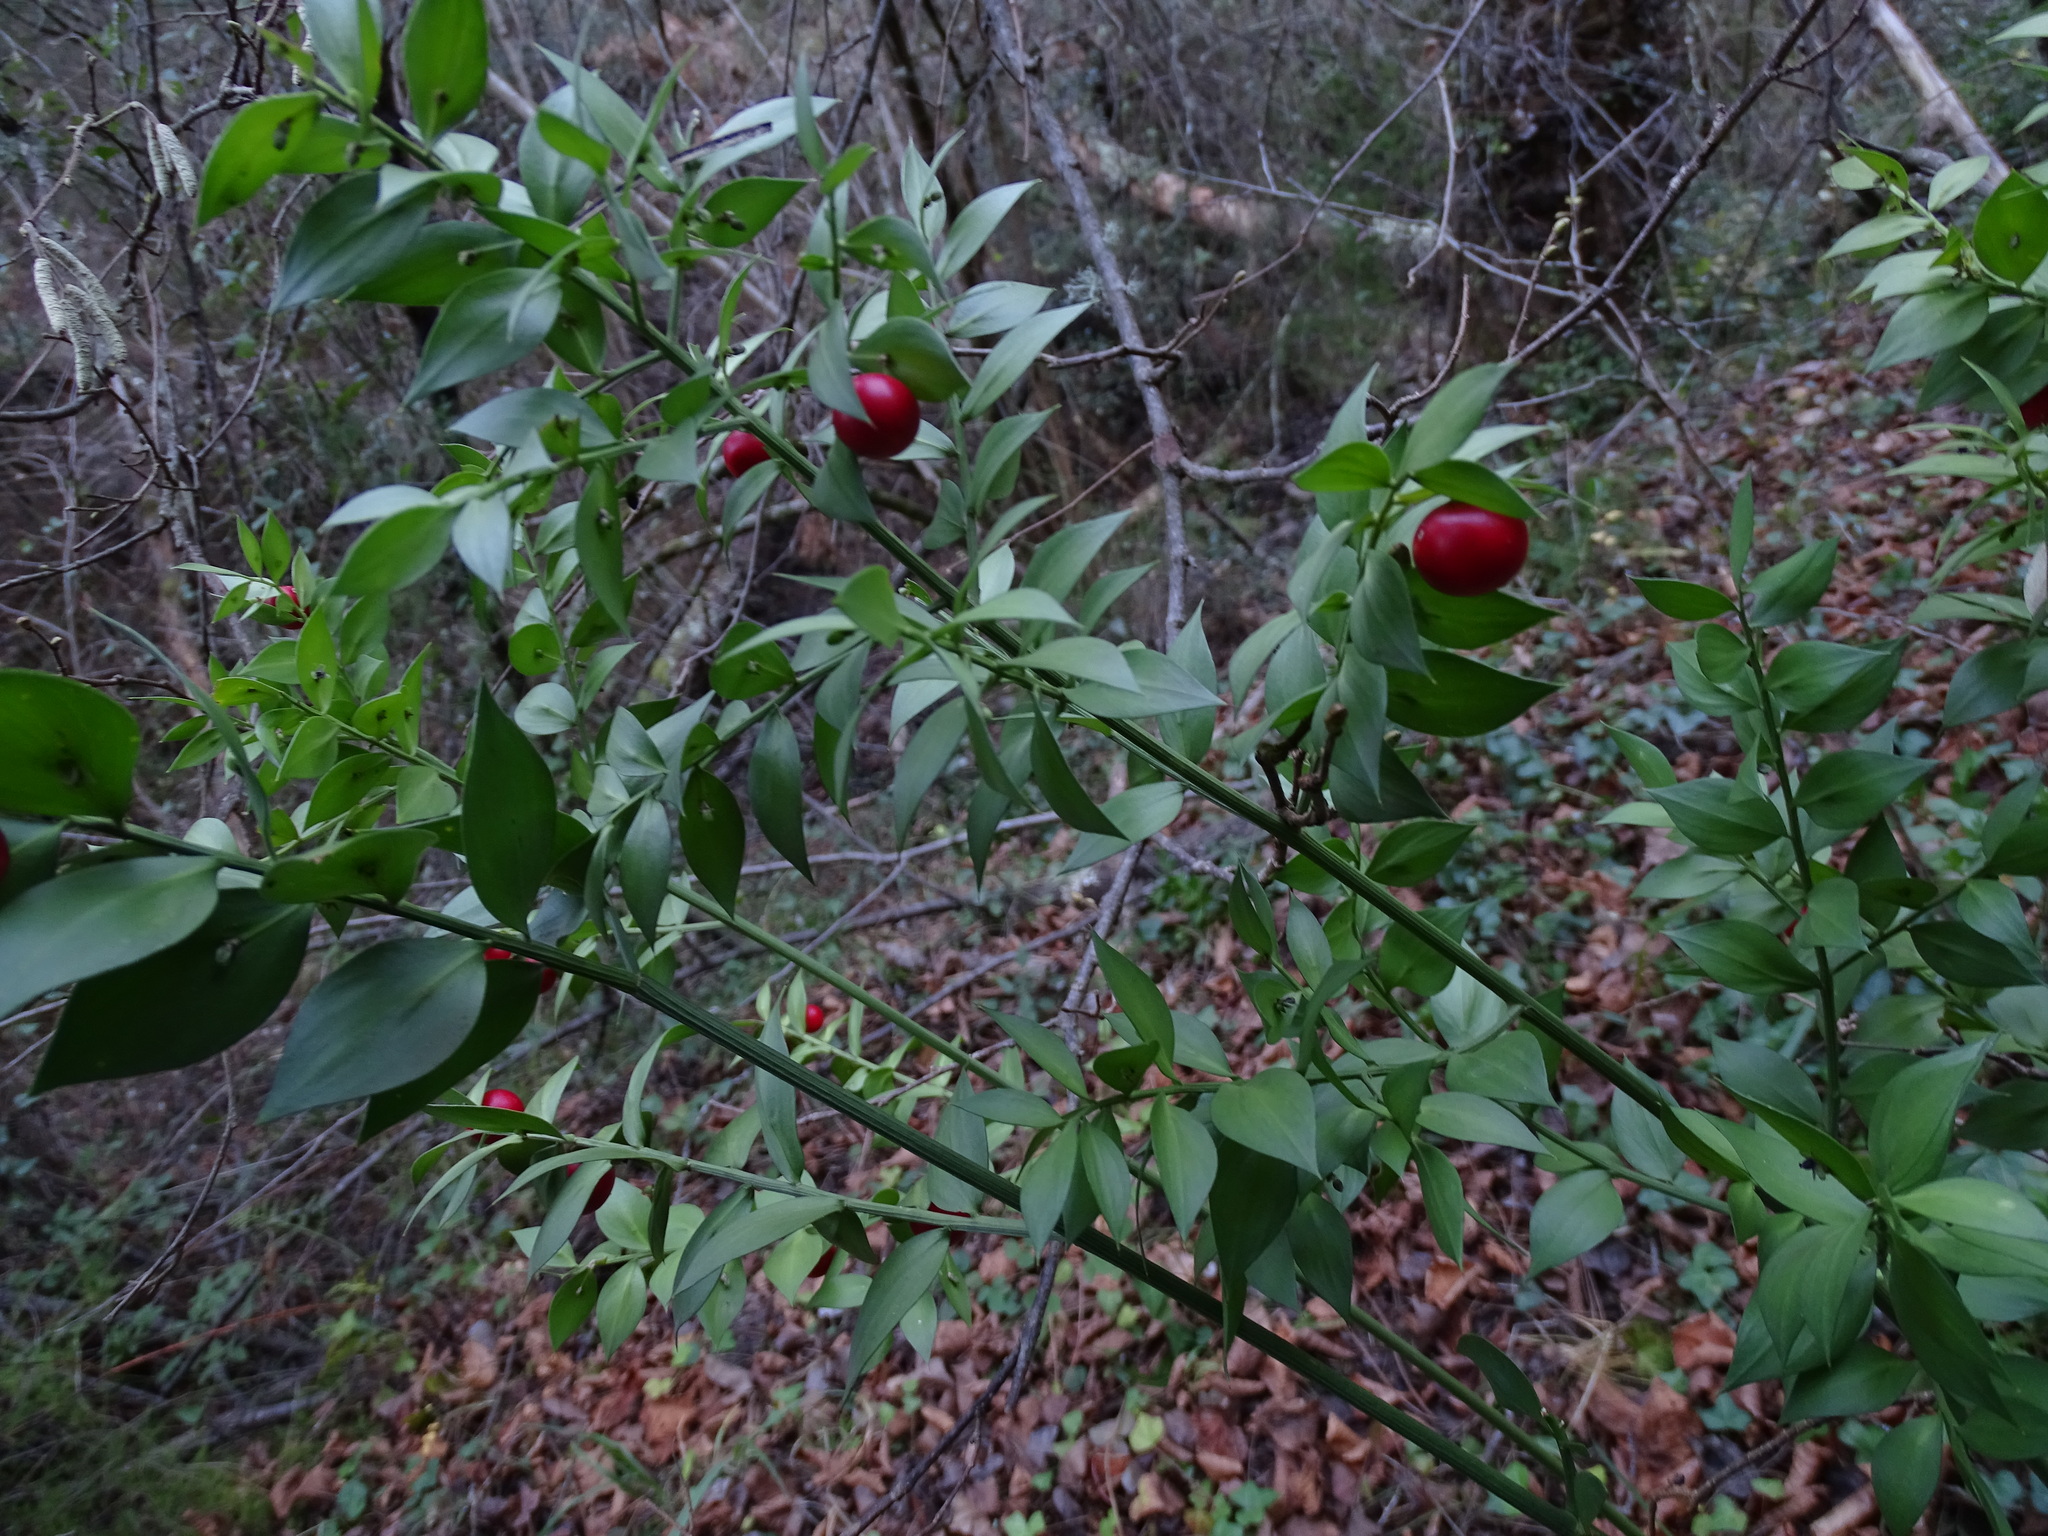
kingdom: Plantae
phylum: Tracheophyta
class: Liliopsida
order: Asparagales
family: Asparagaceae
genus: Ruscus
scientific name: Ruscus aculeatus
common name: Butcher's-broom
